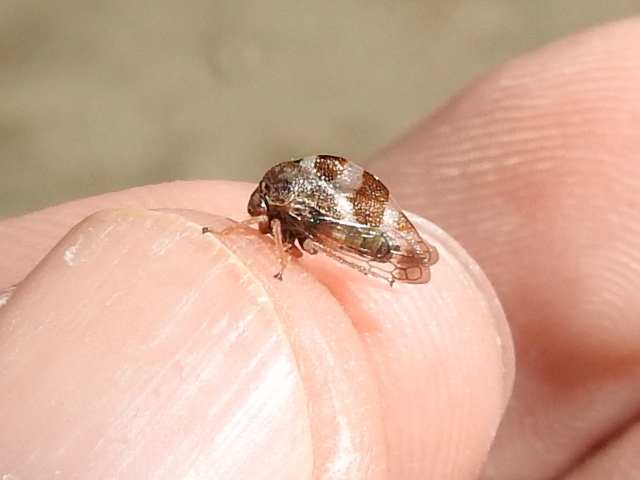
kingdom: Animalia
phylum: Arthropoda
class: Insecta
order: Hemiptera
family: Membracidae
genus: Cyrtolobus
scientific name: Cyrtolobus tuberosa
